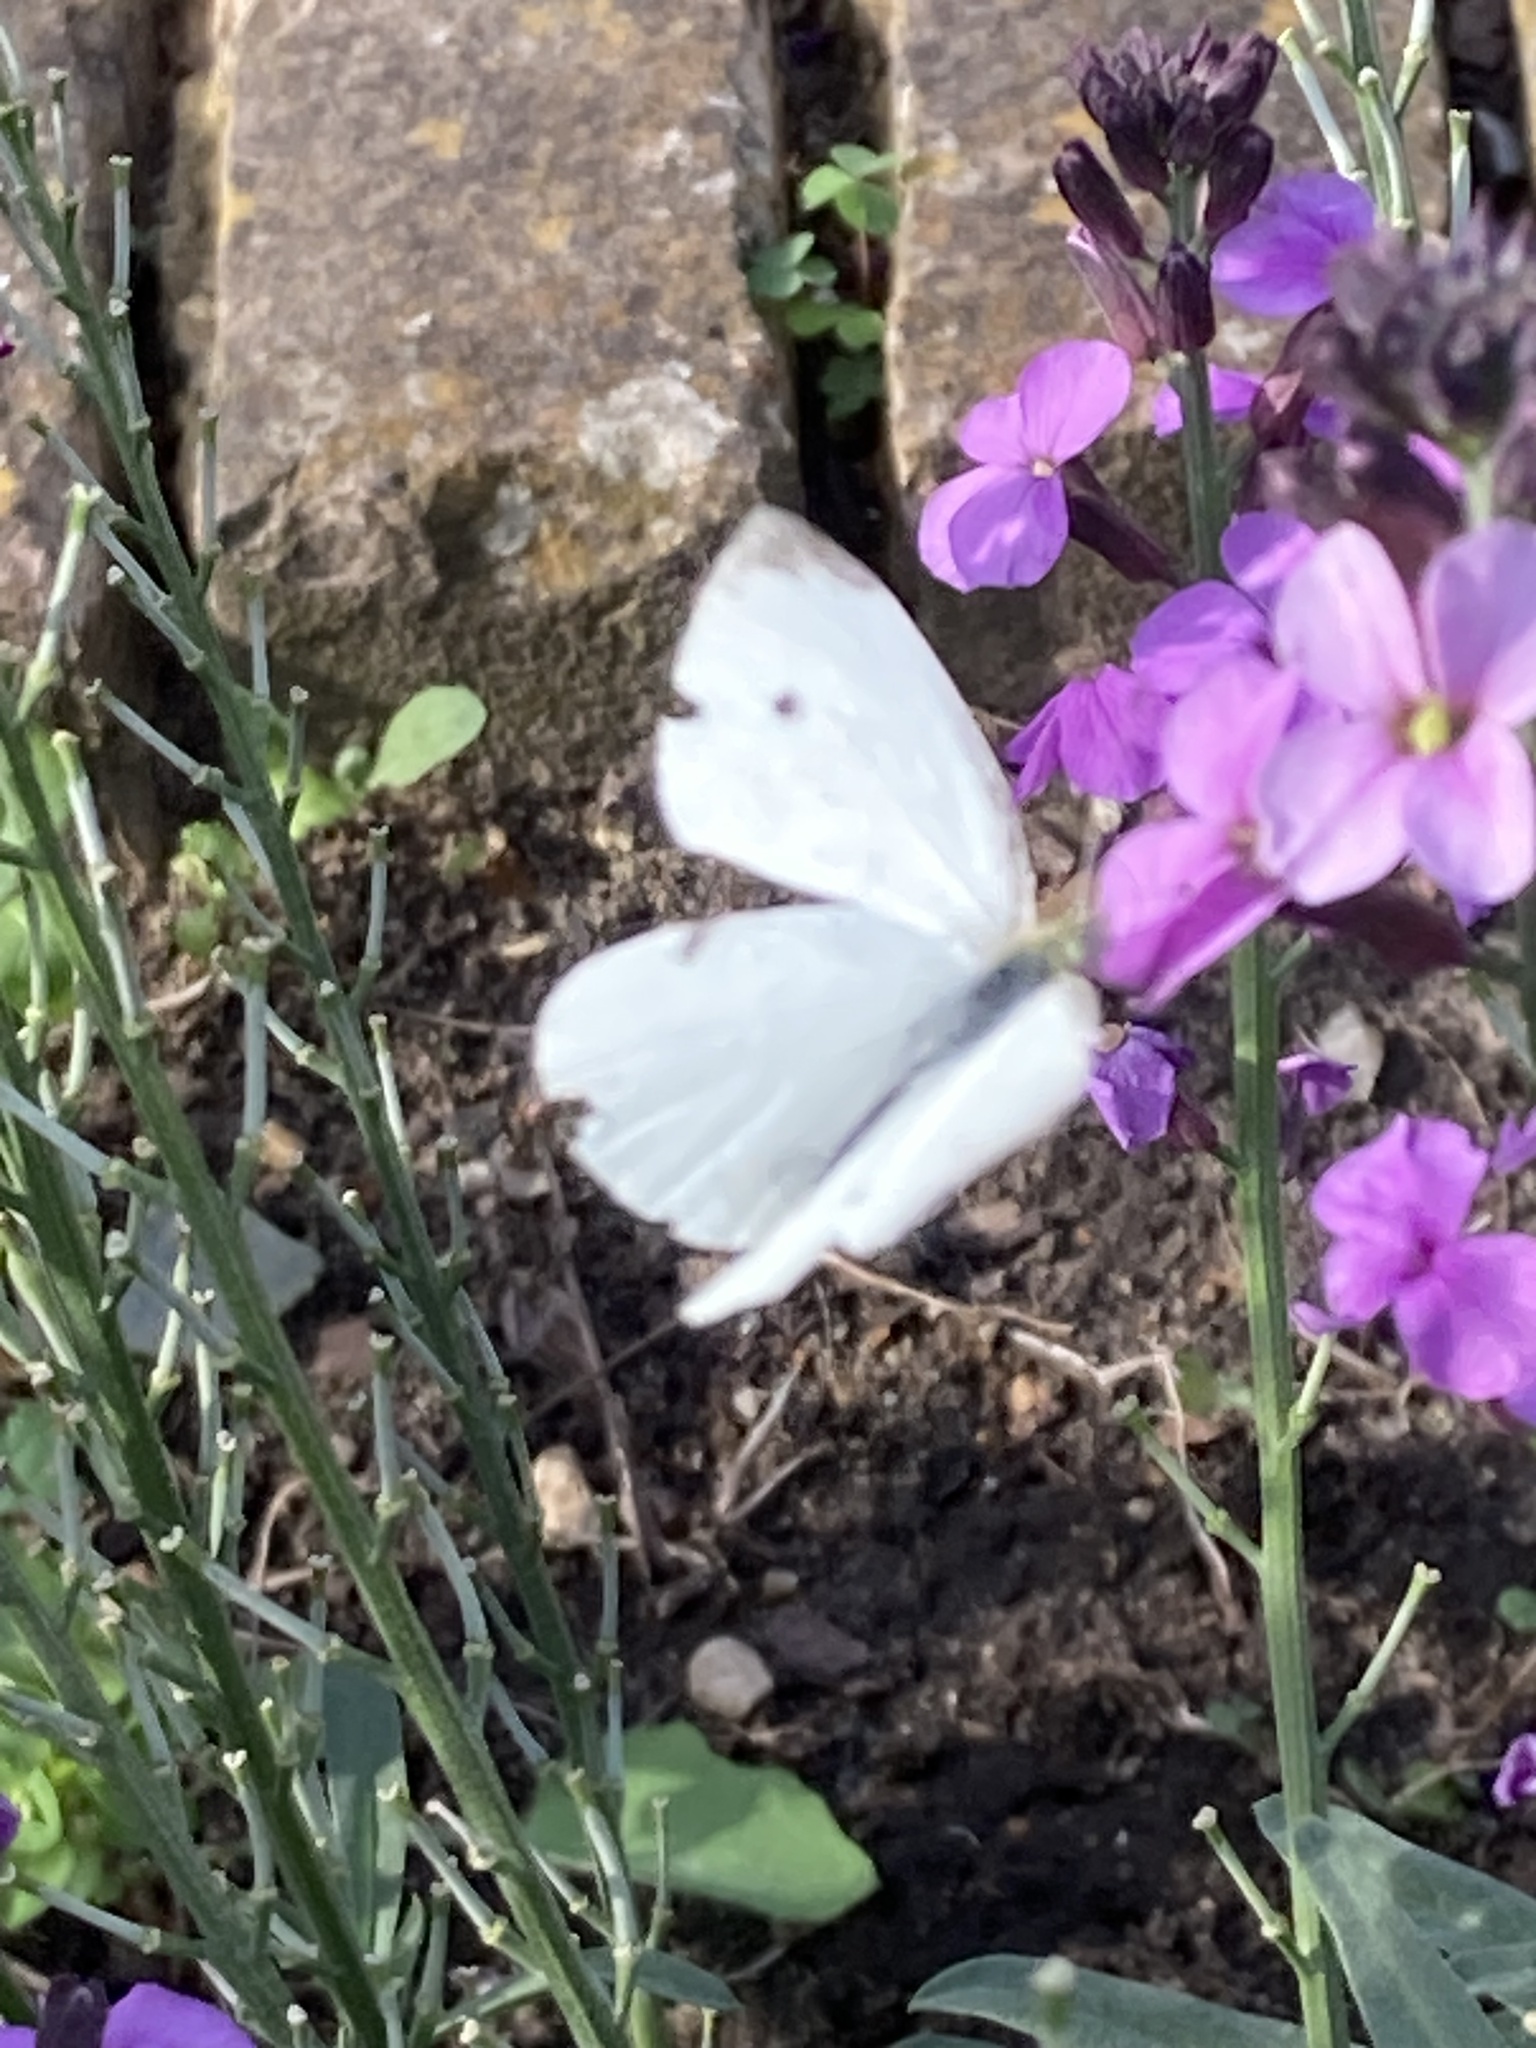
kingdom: Animalia
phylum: Arthropoda
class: Insecta
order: Lepidoptera
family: Pieridae
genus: Pieris
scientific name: Pieris rapae
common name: Small white
